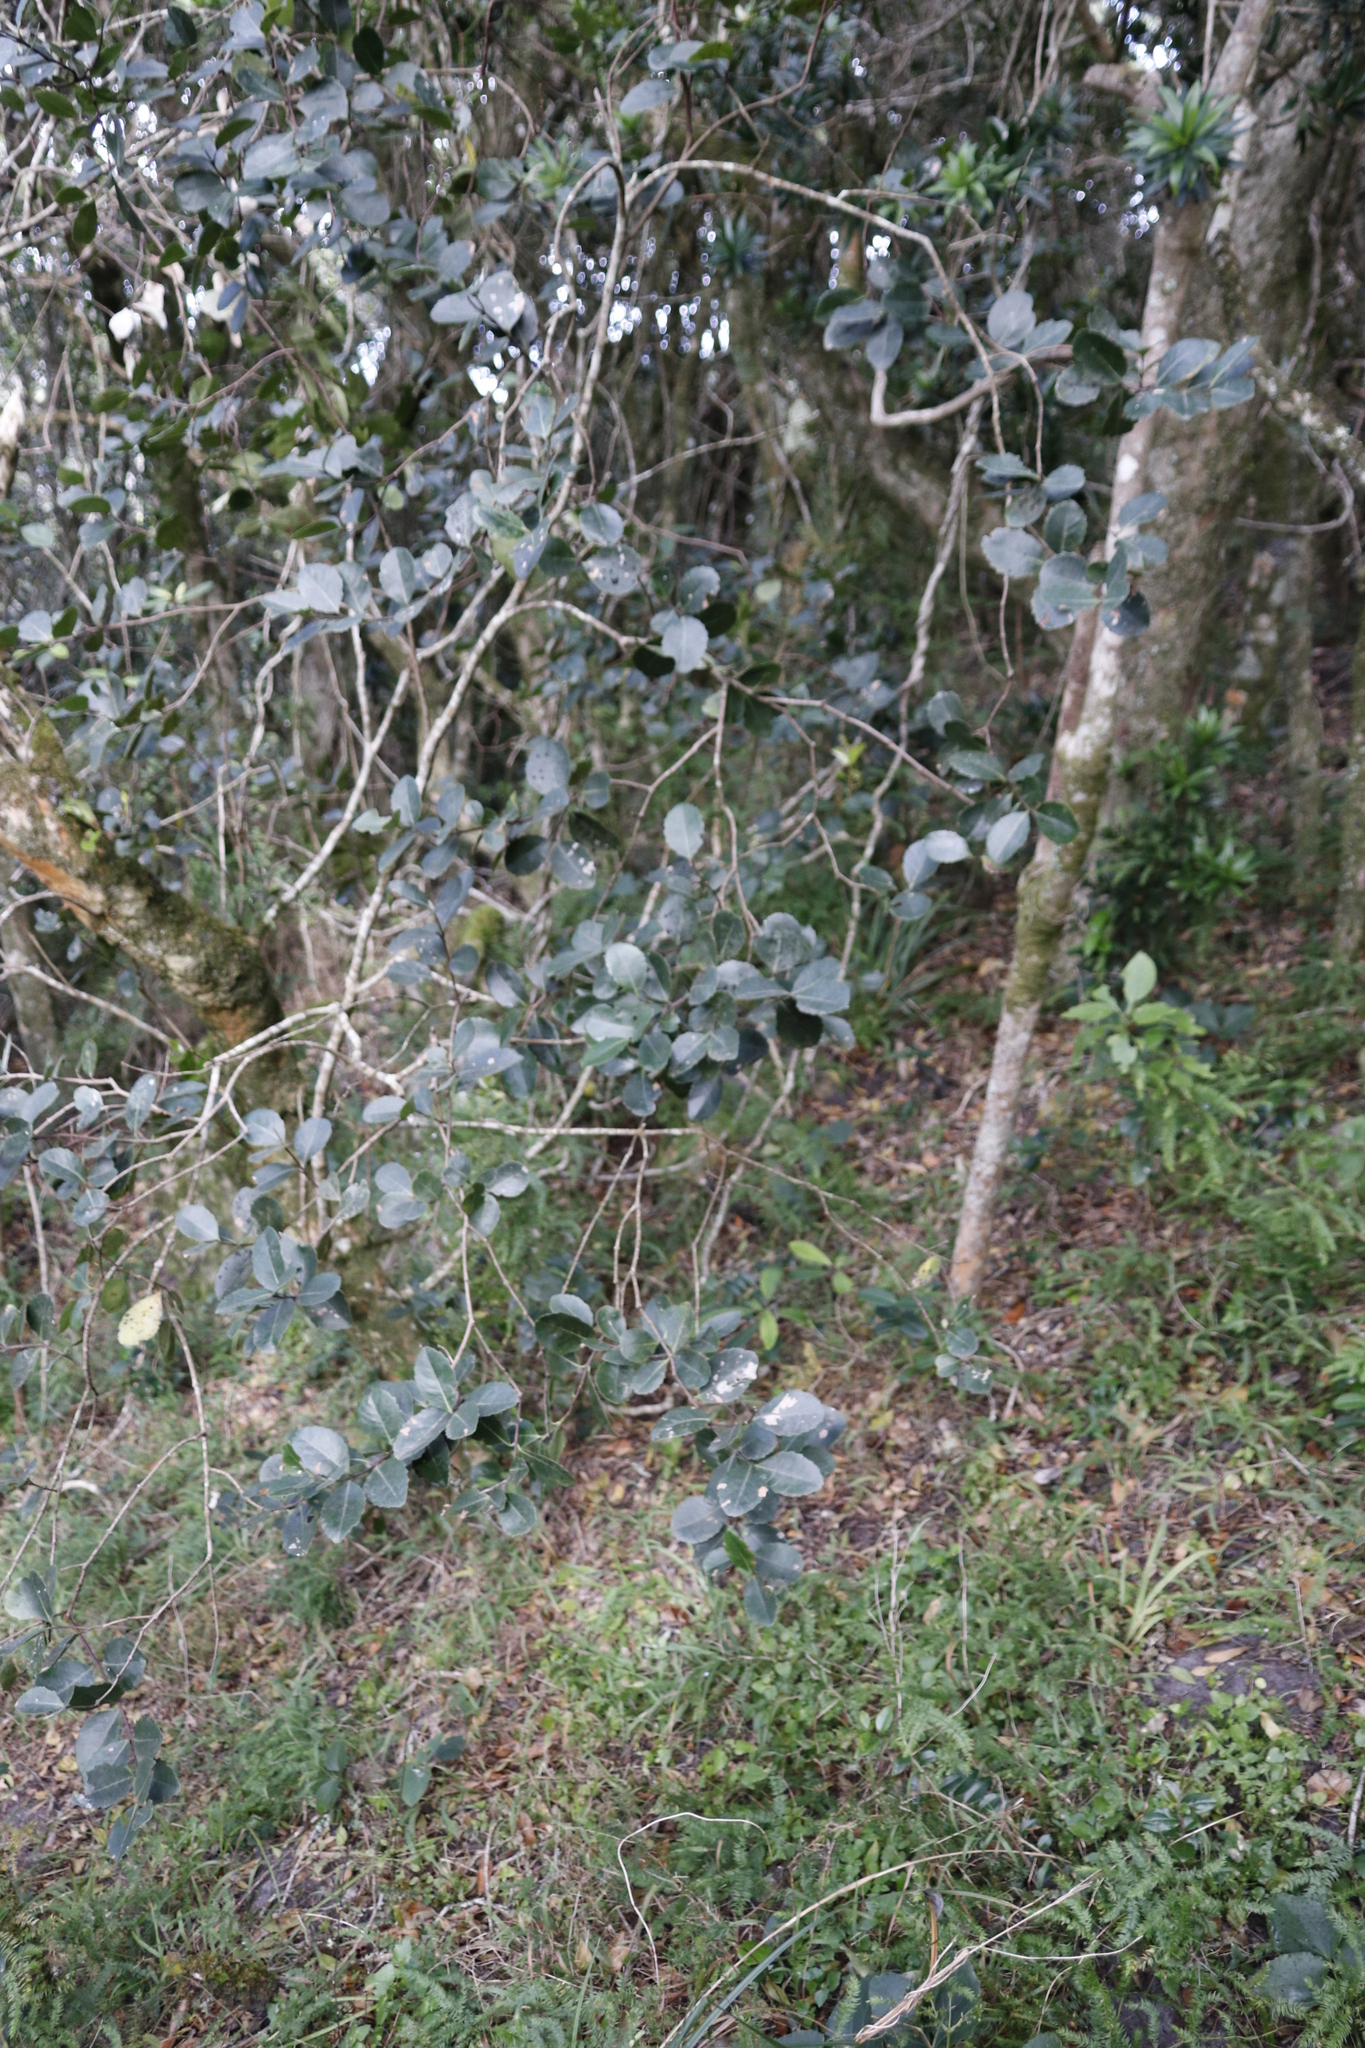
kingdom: Plantae
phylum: Tracheophyta
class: Magnoliopsida
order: Celastrales
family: Celastraceae
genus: Cassine
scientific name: Cassine peragua
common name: Cape saffron
